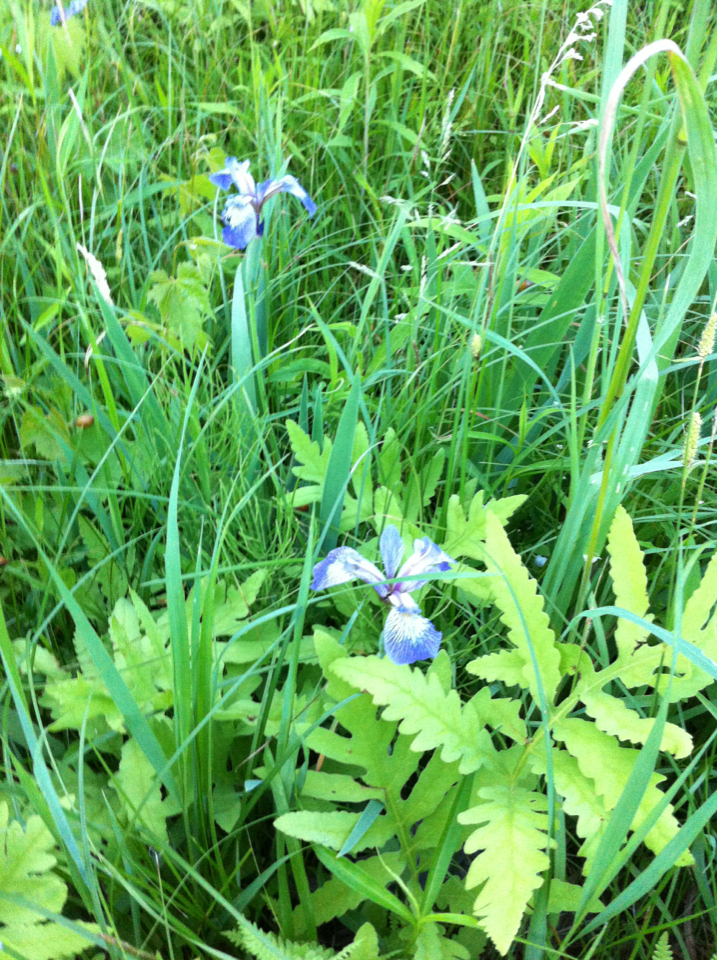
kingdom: Plantae
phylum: Tracheophyta
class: Liliopsida
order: Asparagales
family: Iridaceae
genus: Iris
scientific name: Iris versicolor
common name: Purple iris
